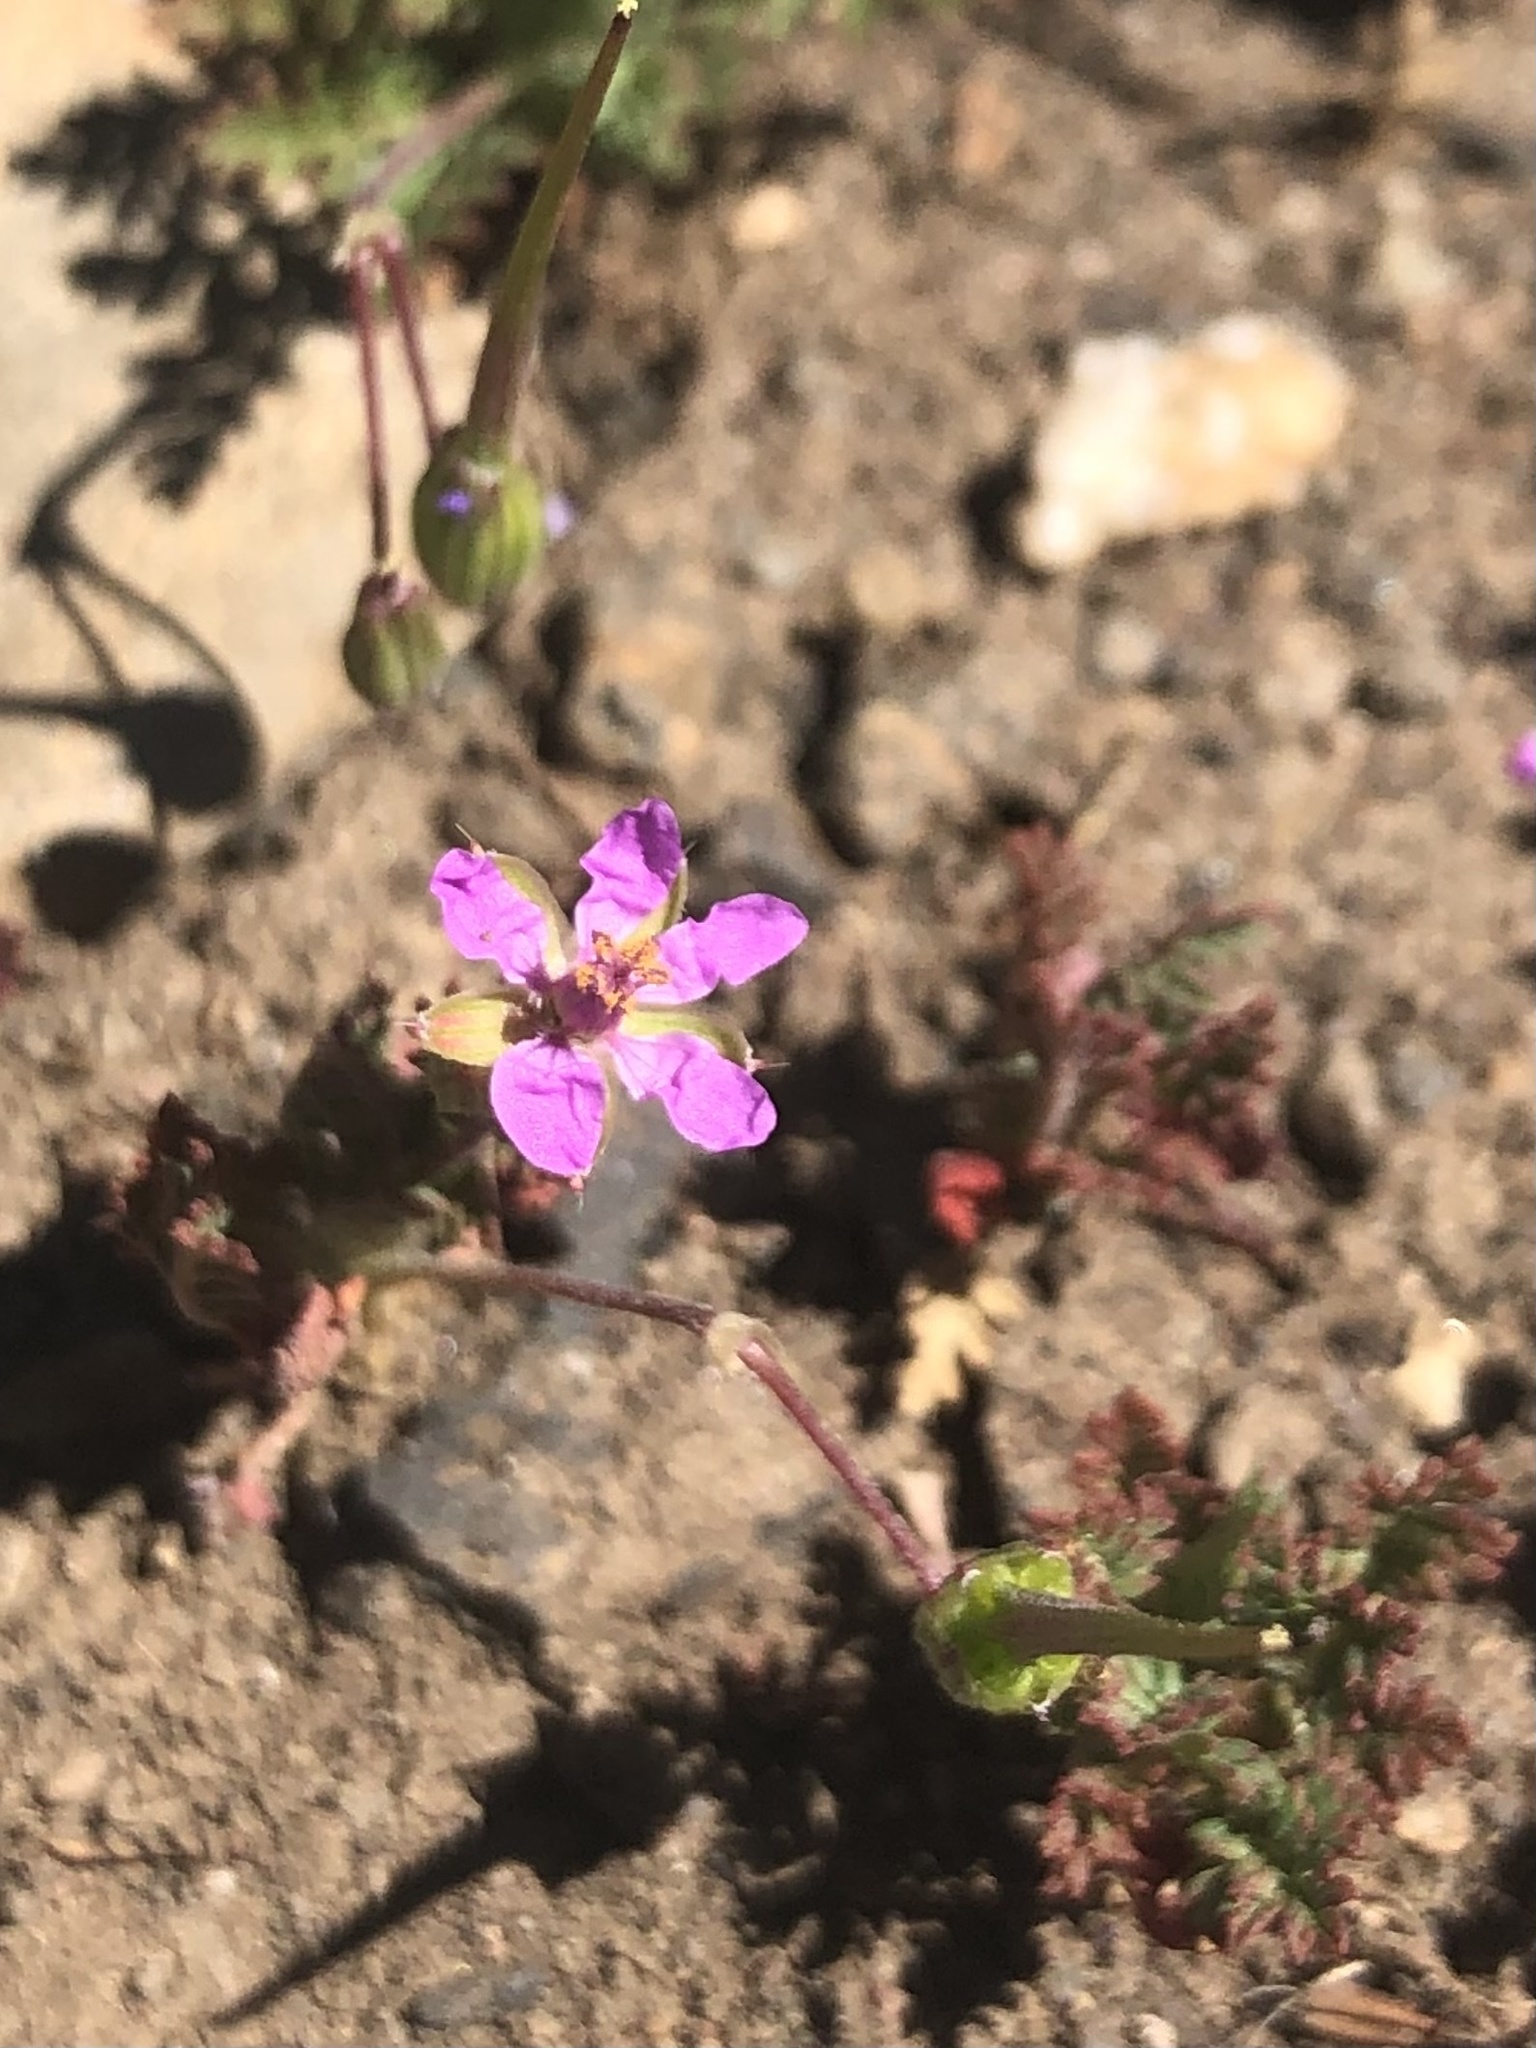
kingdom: Plantae
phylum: Tracheophyta
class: Magnoliopsida
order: Geraniales
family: Geraniaceae
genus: Erodium
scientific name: Erodium cicutarium
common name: Common stork's-bill
